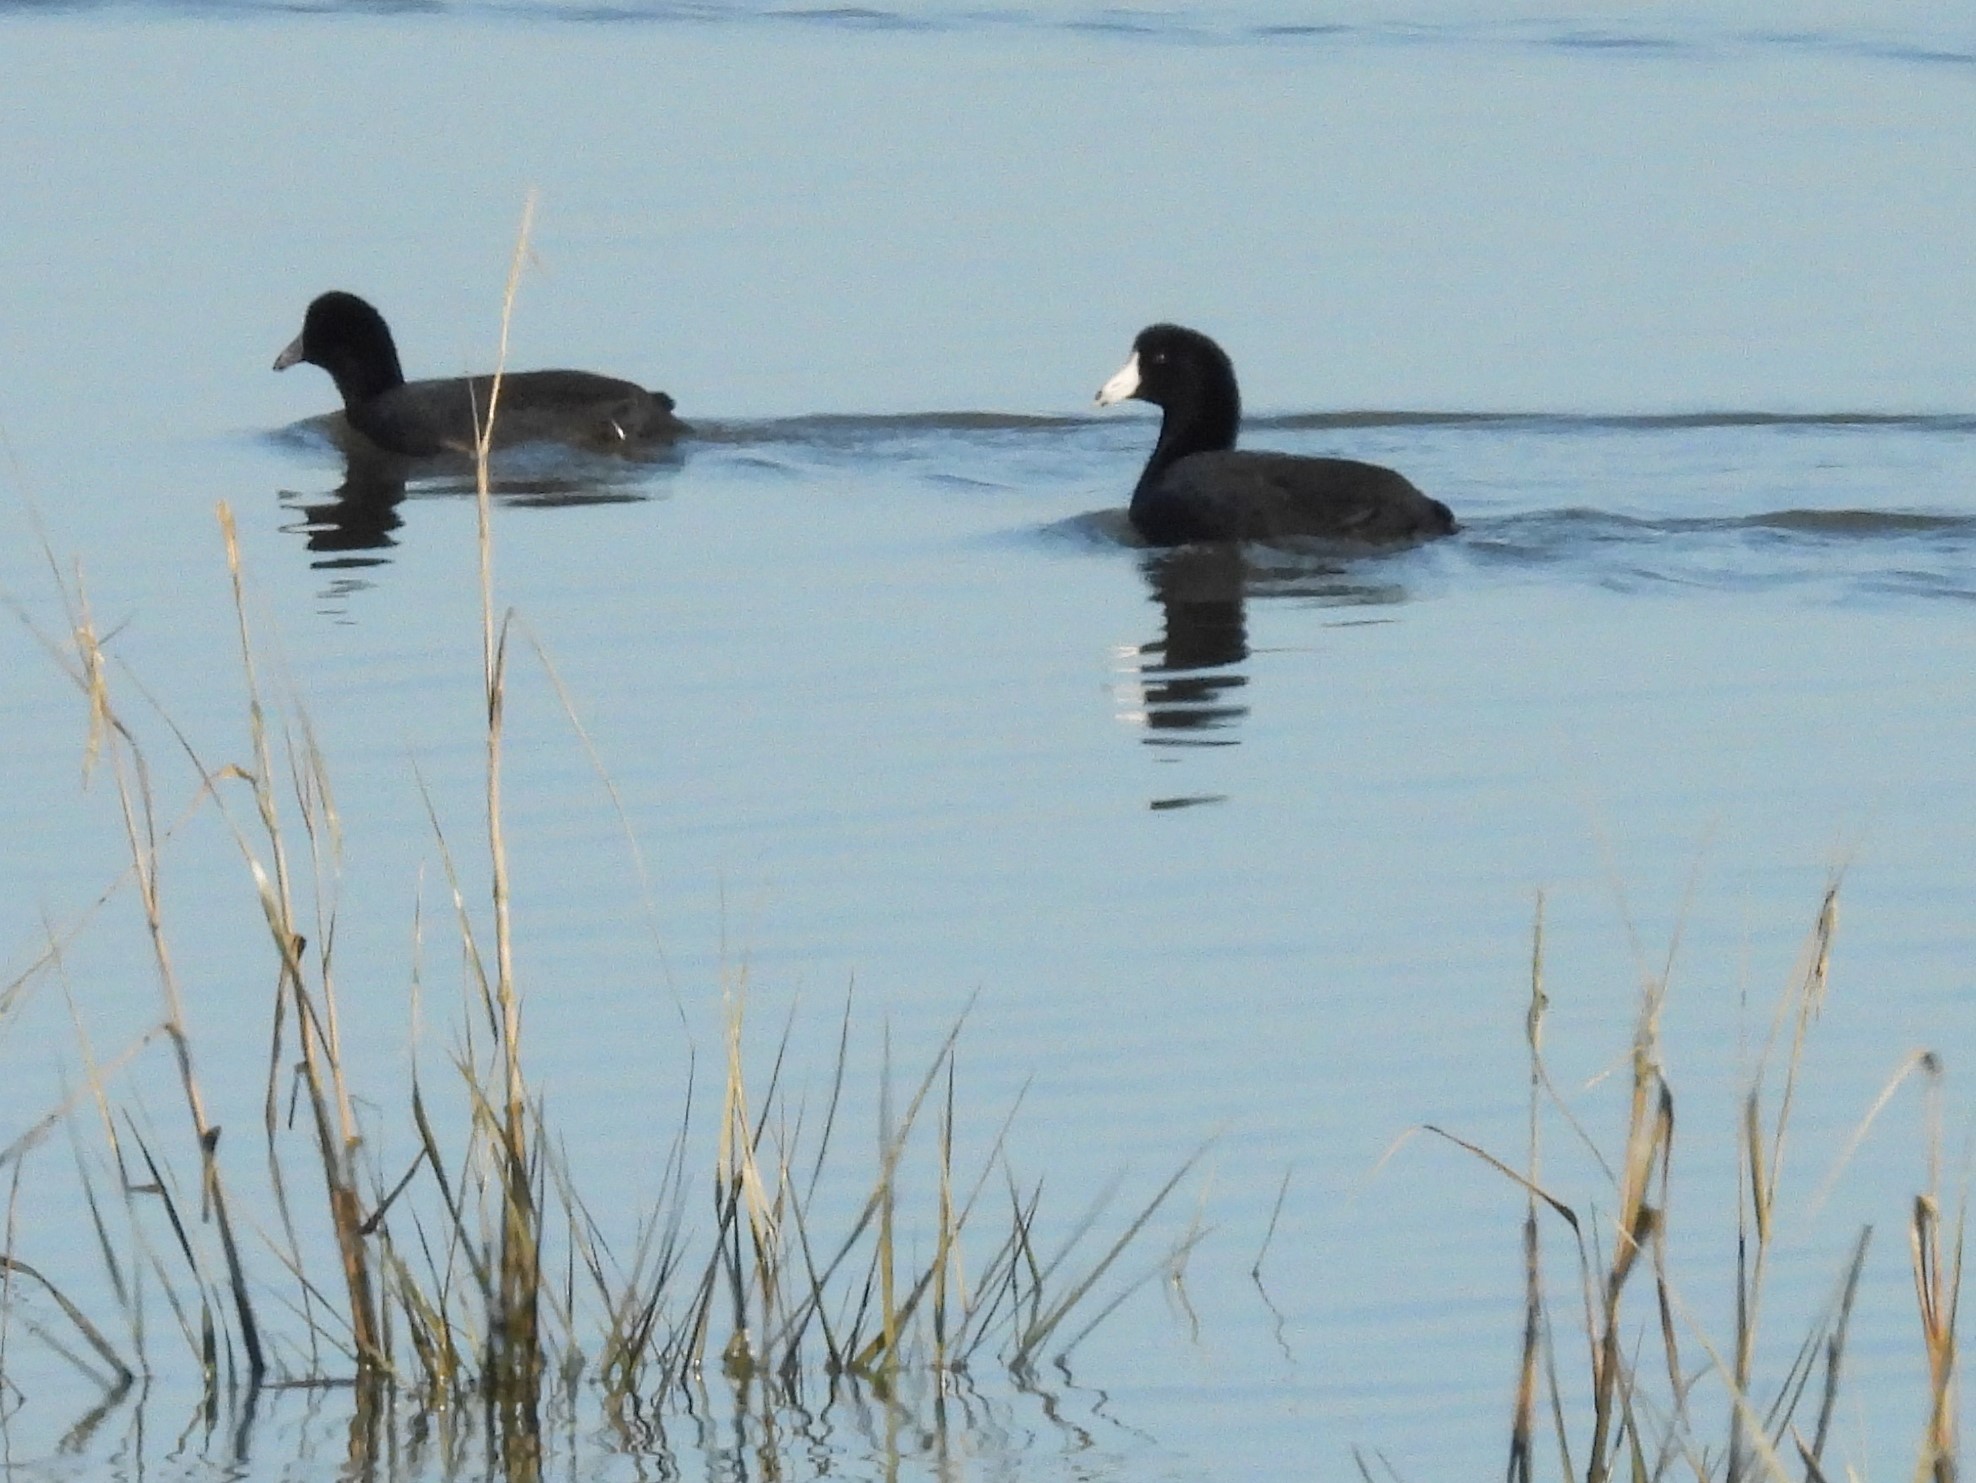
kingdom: Animalia
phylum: Chordata
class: Aves
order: Gruiformes
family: Rallidae
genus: Fulica
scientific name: Fulica americana
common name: American coot
